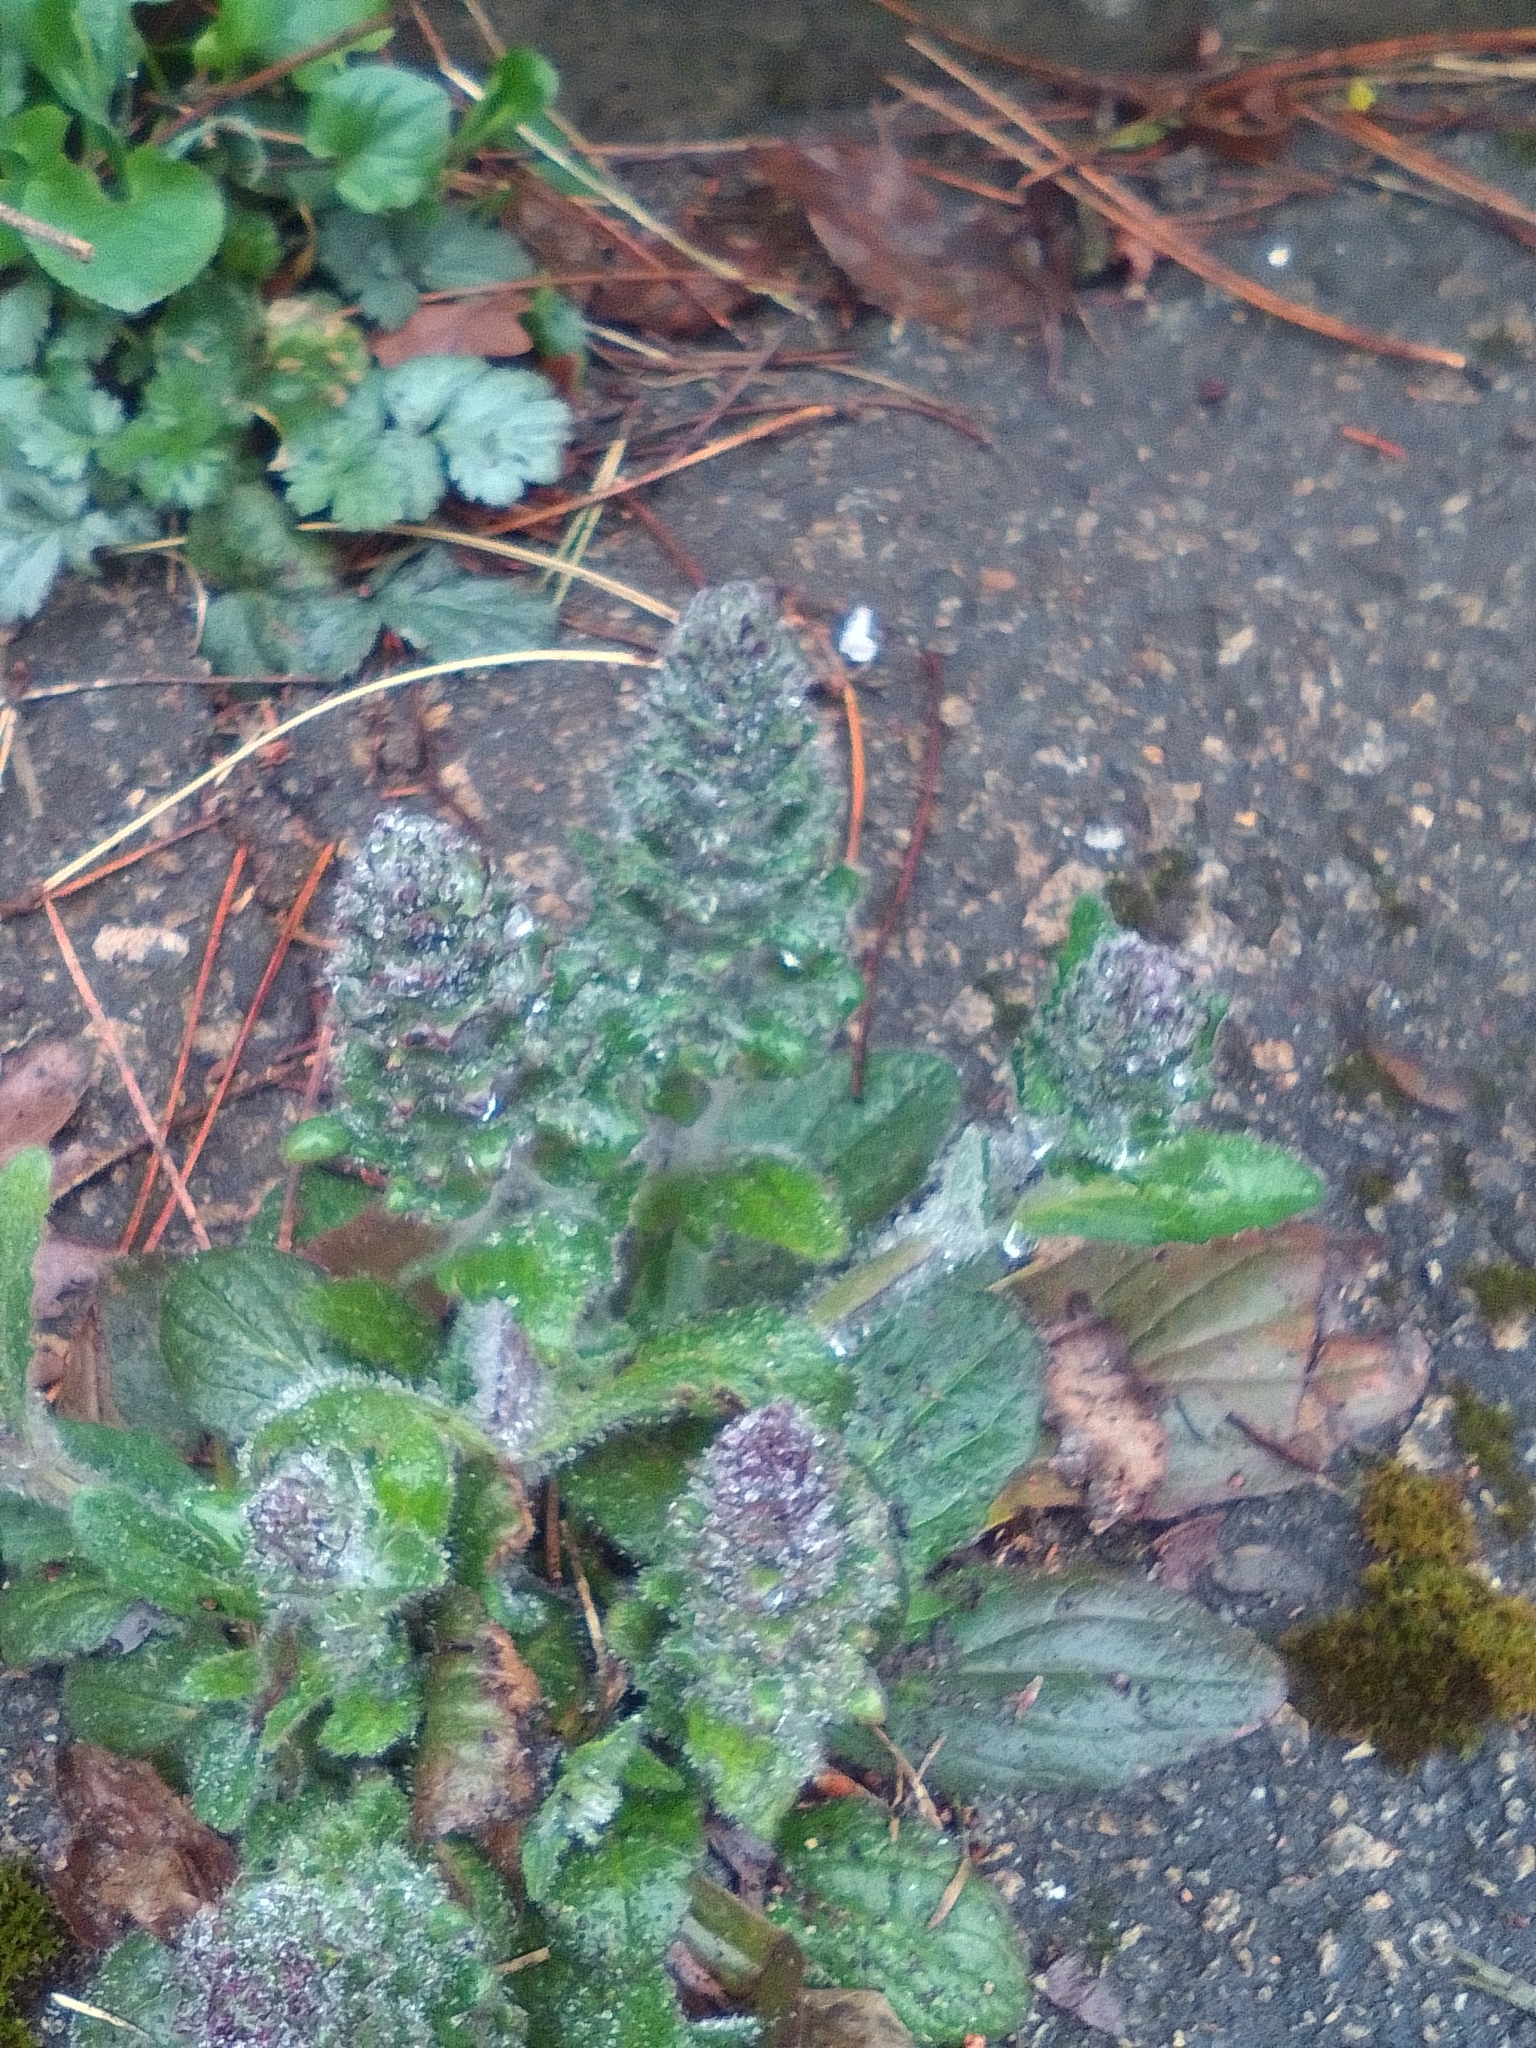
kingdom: Plantae
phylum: Tracheophyta
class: Magnoliopsida
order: Lamiales
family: Lamiaceae
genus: Ajuga
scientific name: Ajuga orientalis
